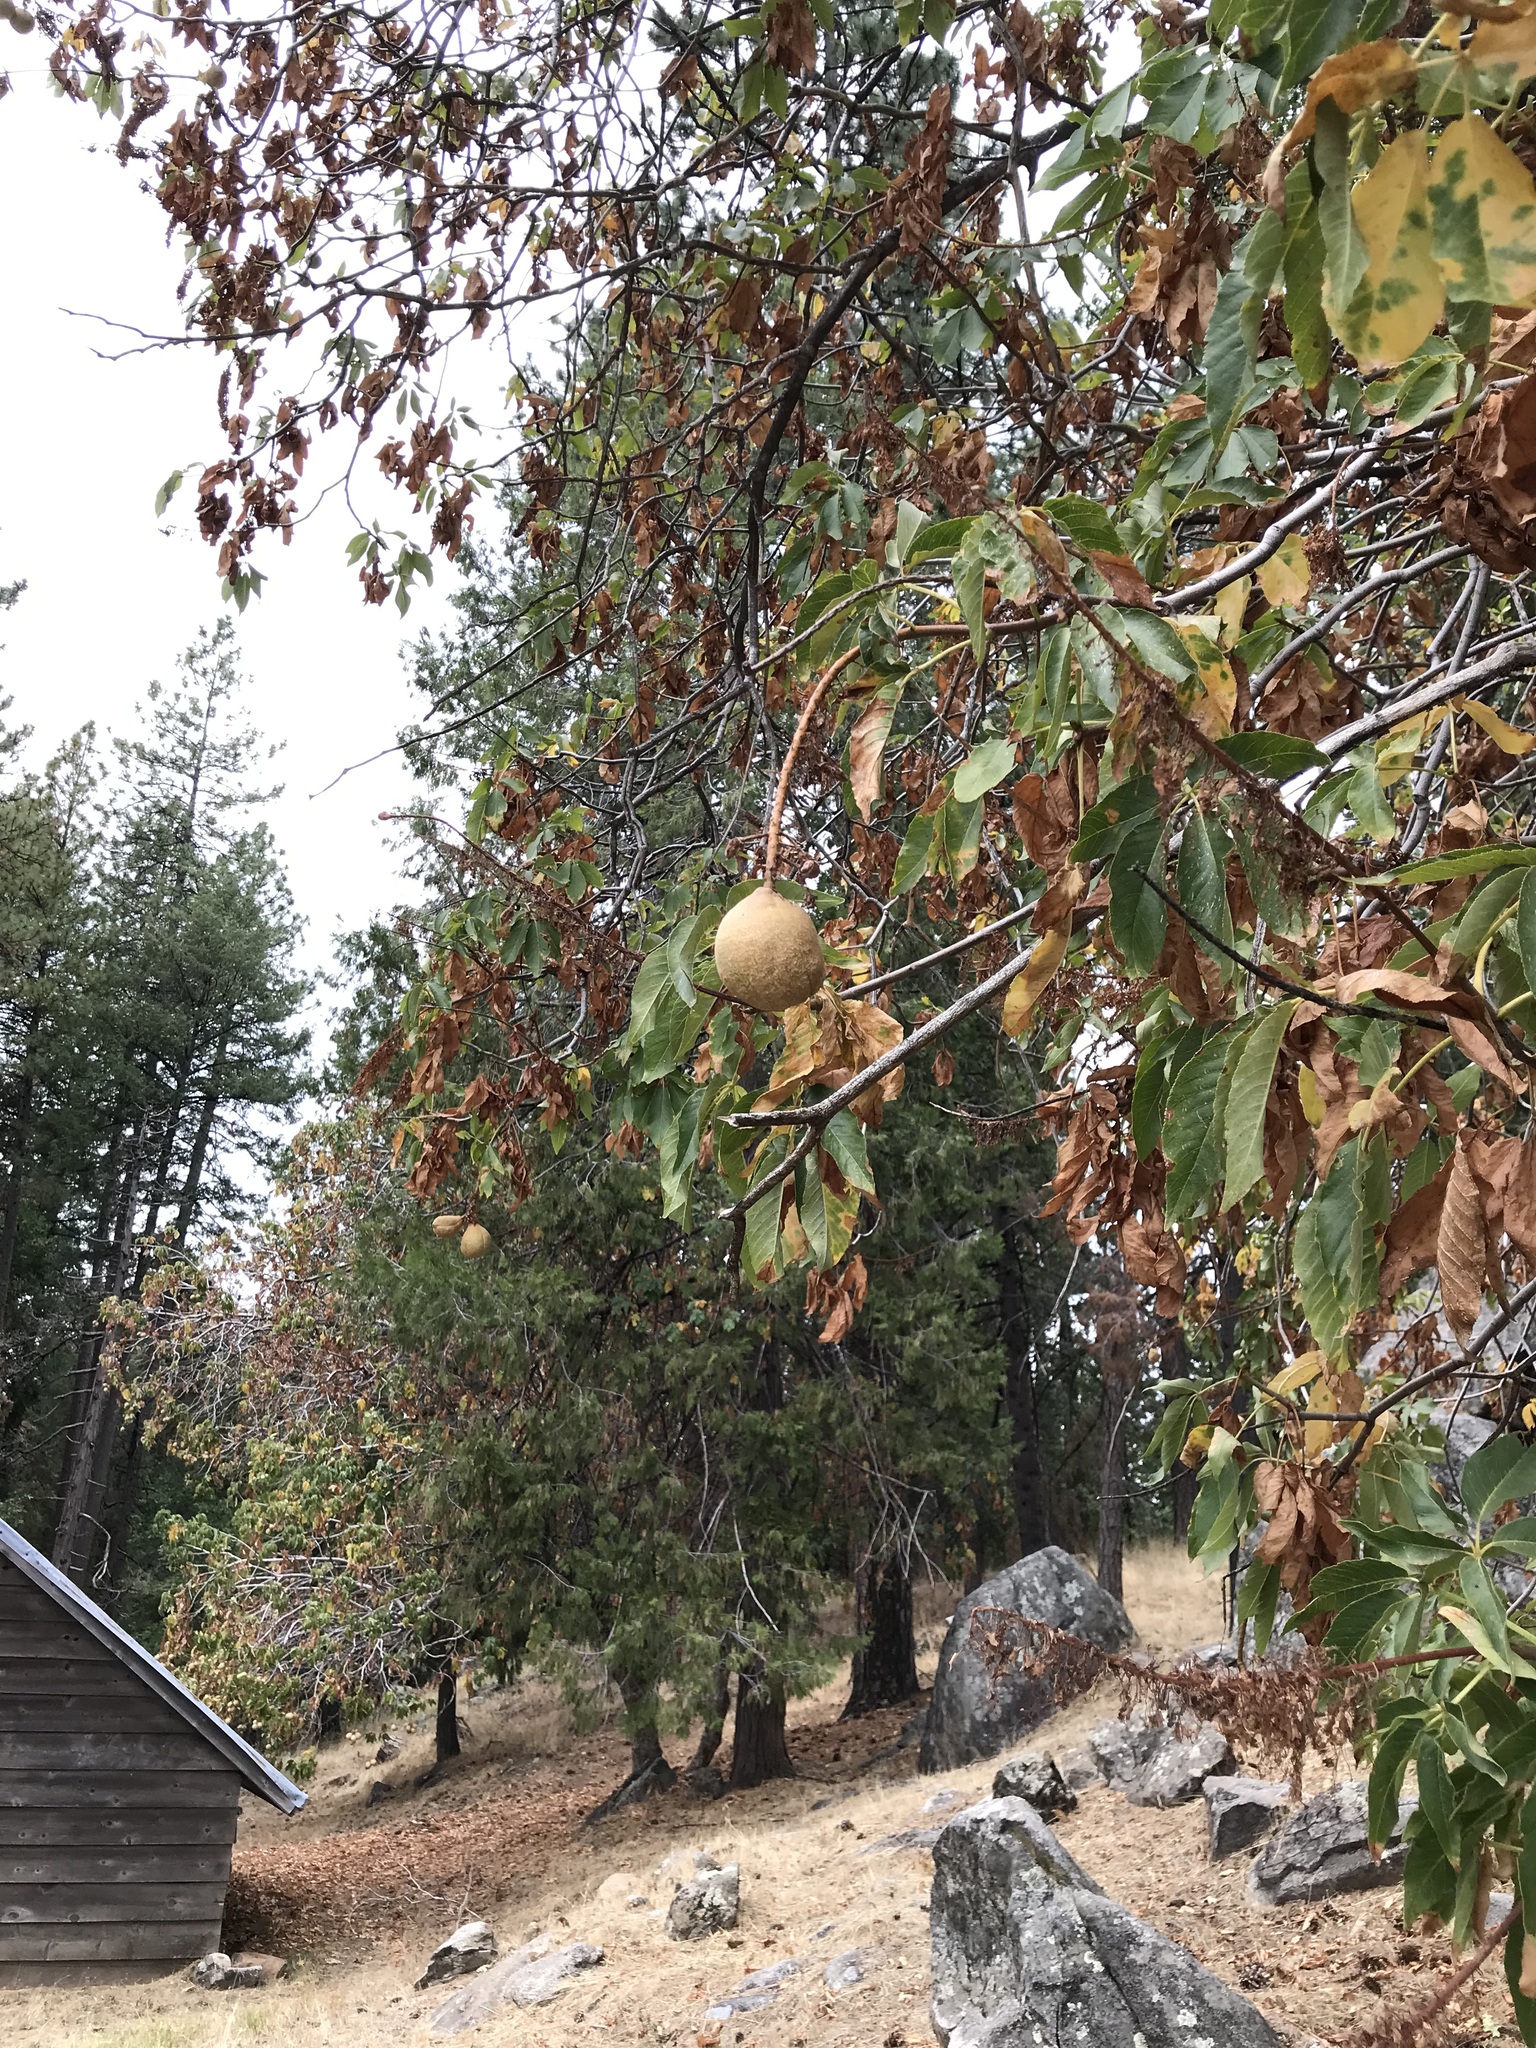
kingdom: Plantae
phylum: Tracheophyta
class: Magnoliopsida
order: Sapindales
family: Sapindaceae
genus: Aesculus
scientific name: Aesculus californica
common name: California buckeye
